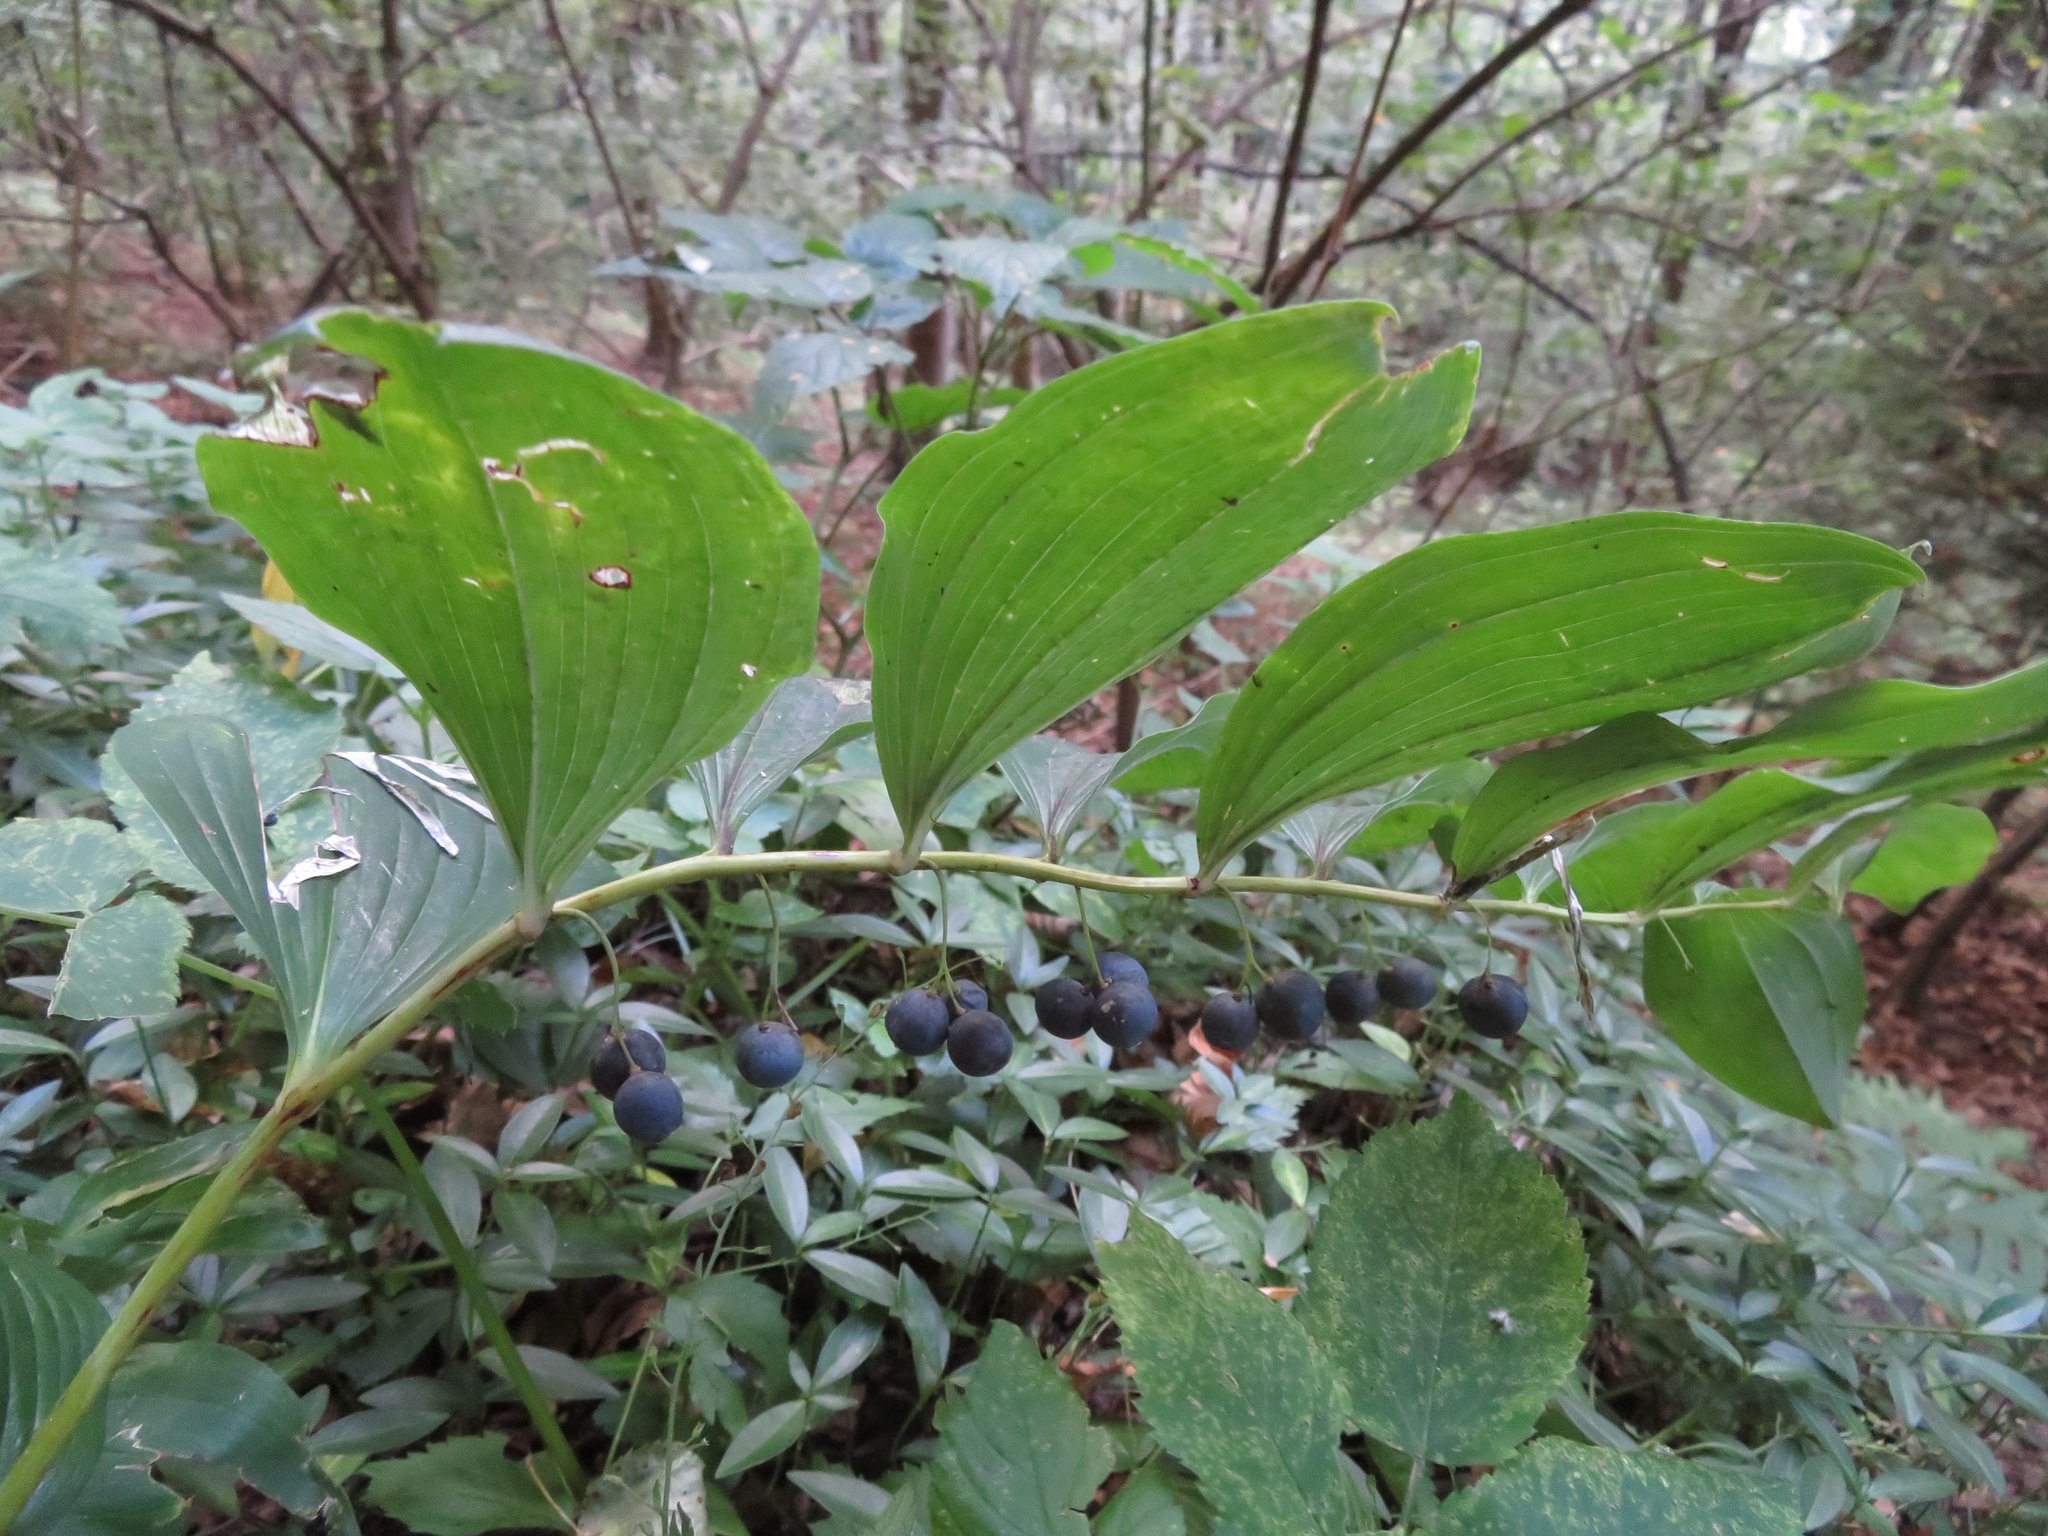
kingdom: Plantae
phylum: Tracheophyta
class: Liliopsida
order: Asparagales
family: Asparagaceae
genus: Polygonatum
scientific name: Polygonatum multiflorum
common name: Solomon's-seal
